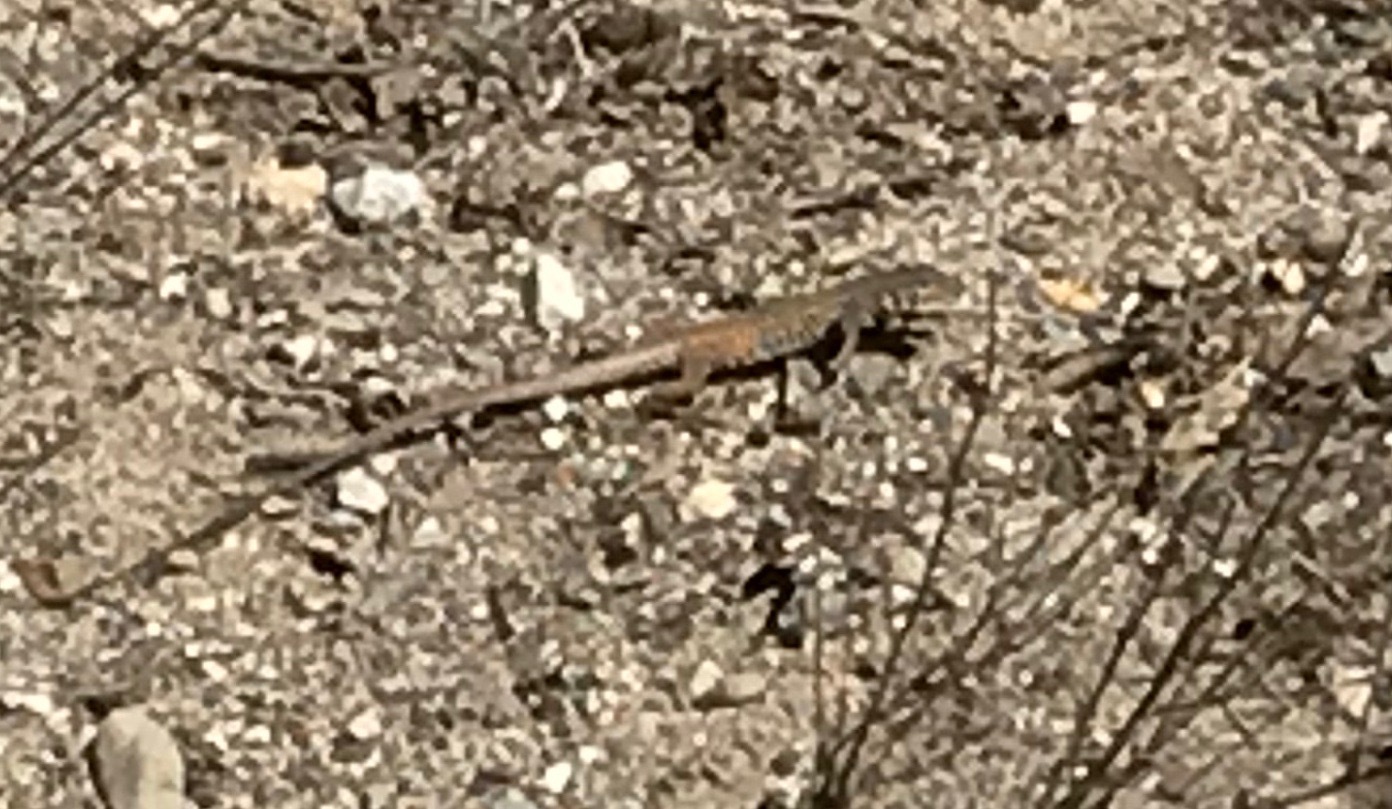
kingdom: Animalia
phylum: Chordata
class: Squamata
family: Teiidae
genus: Aspidoscelis
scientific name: Aspidoscelis tigris
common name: Tiger whiptail
